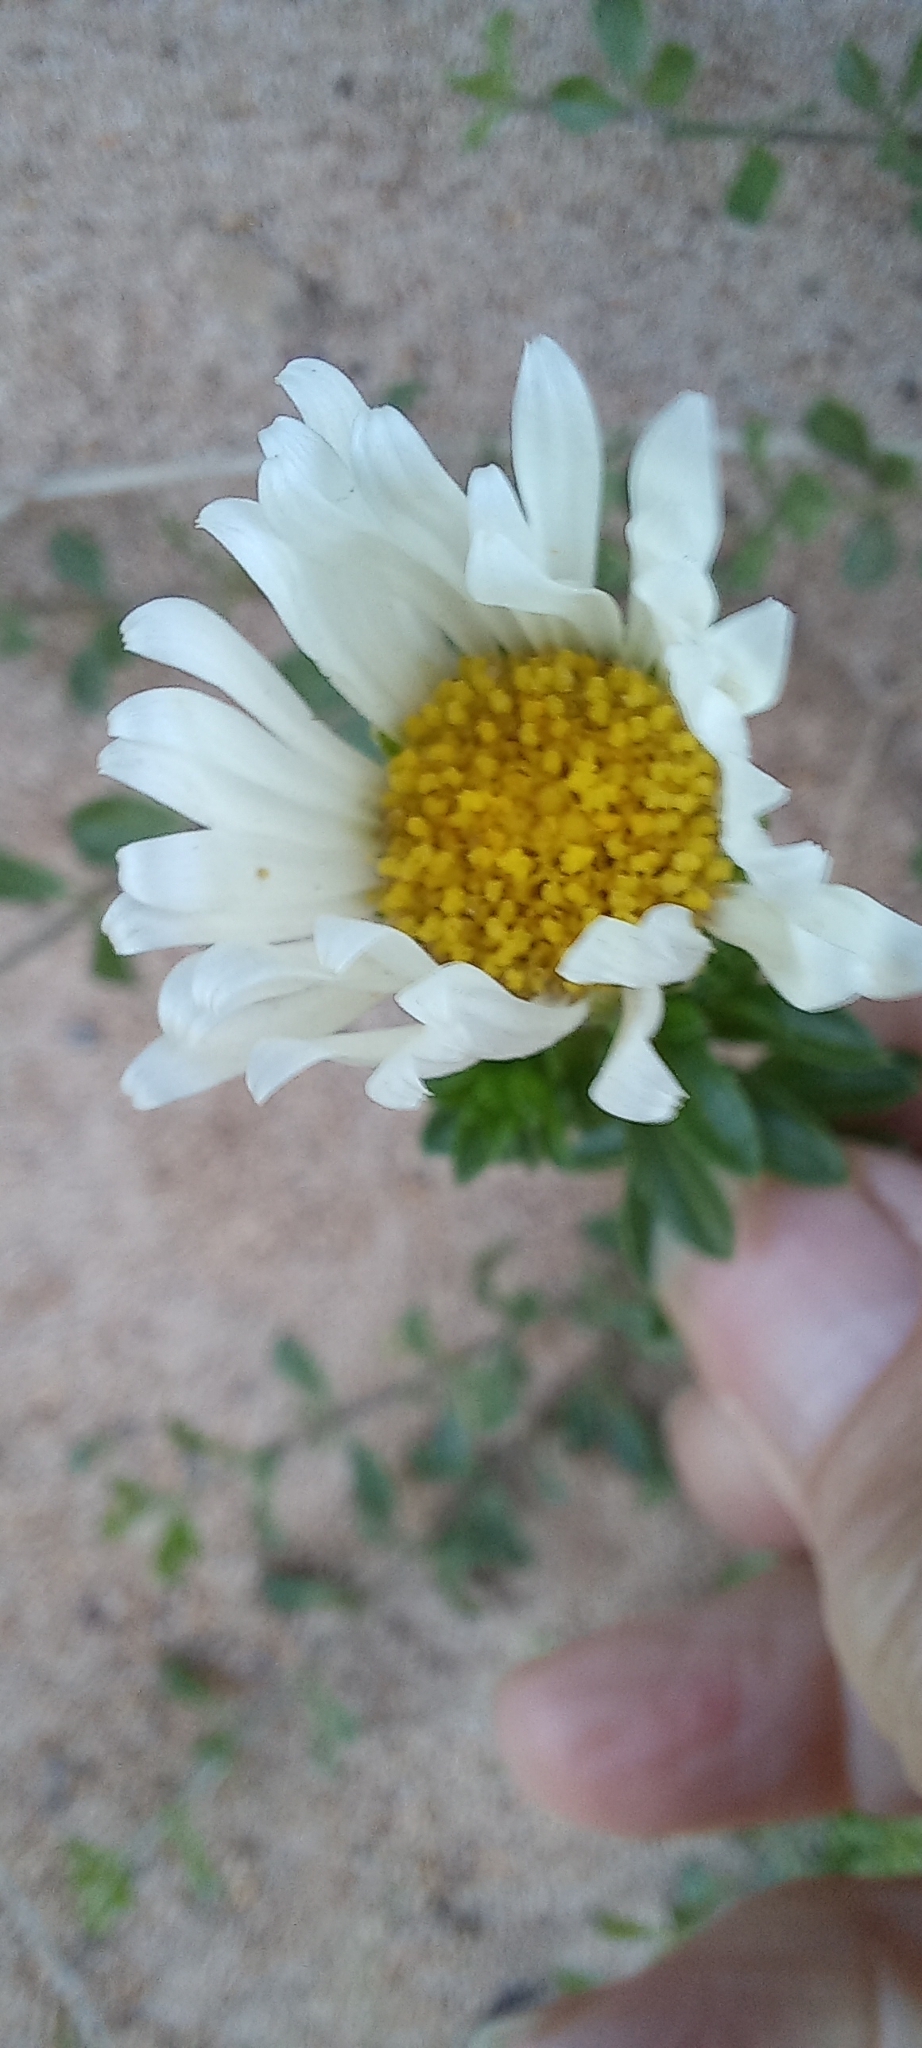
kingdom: Plantae
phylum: Tracheophyta
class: Magnoliopsida
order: Asterales
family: Asteraceae
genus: Felicia
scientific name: Felicia echinata
